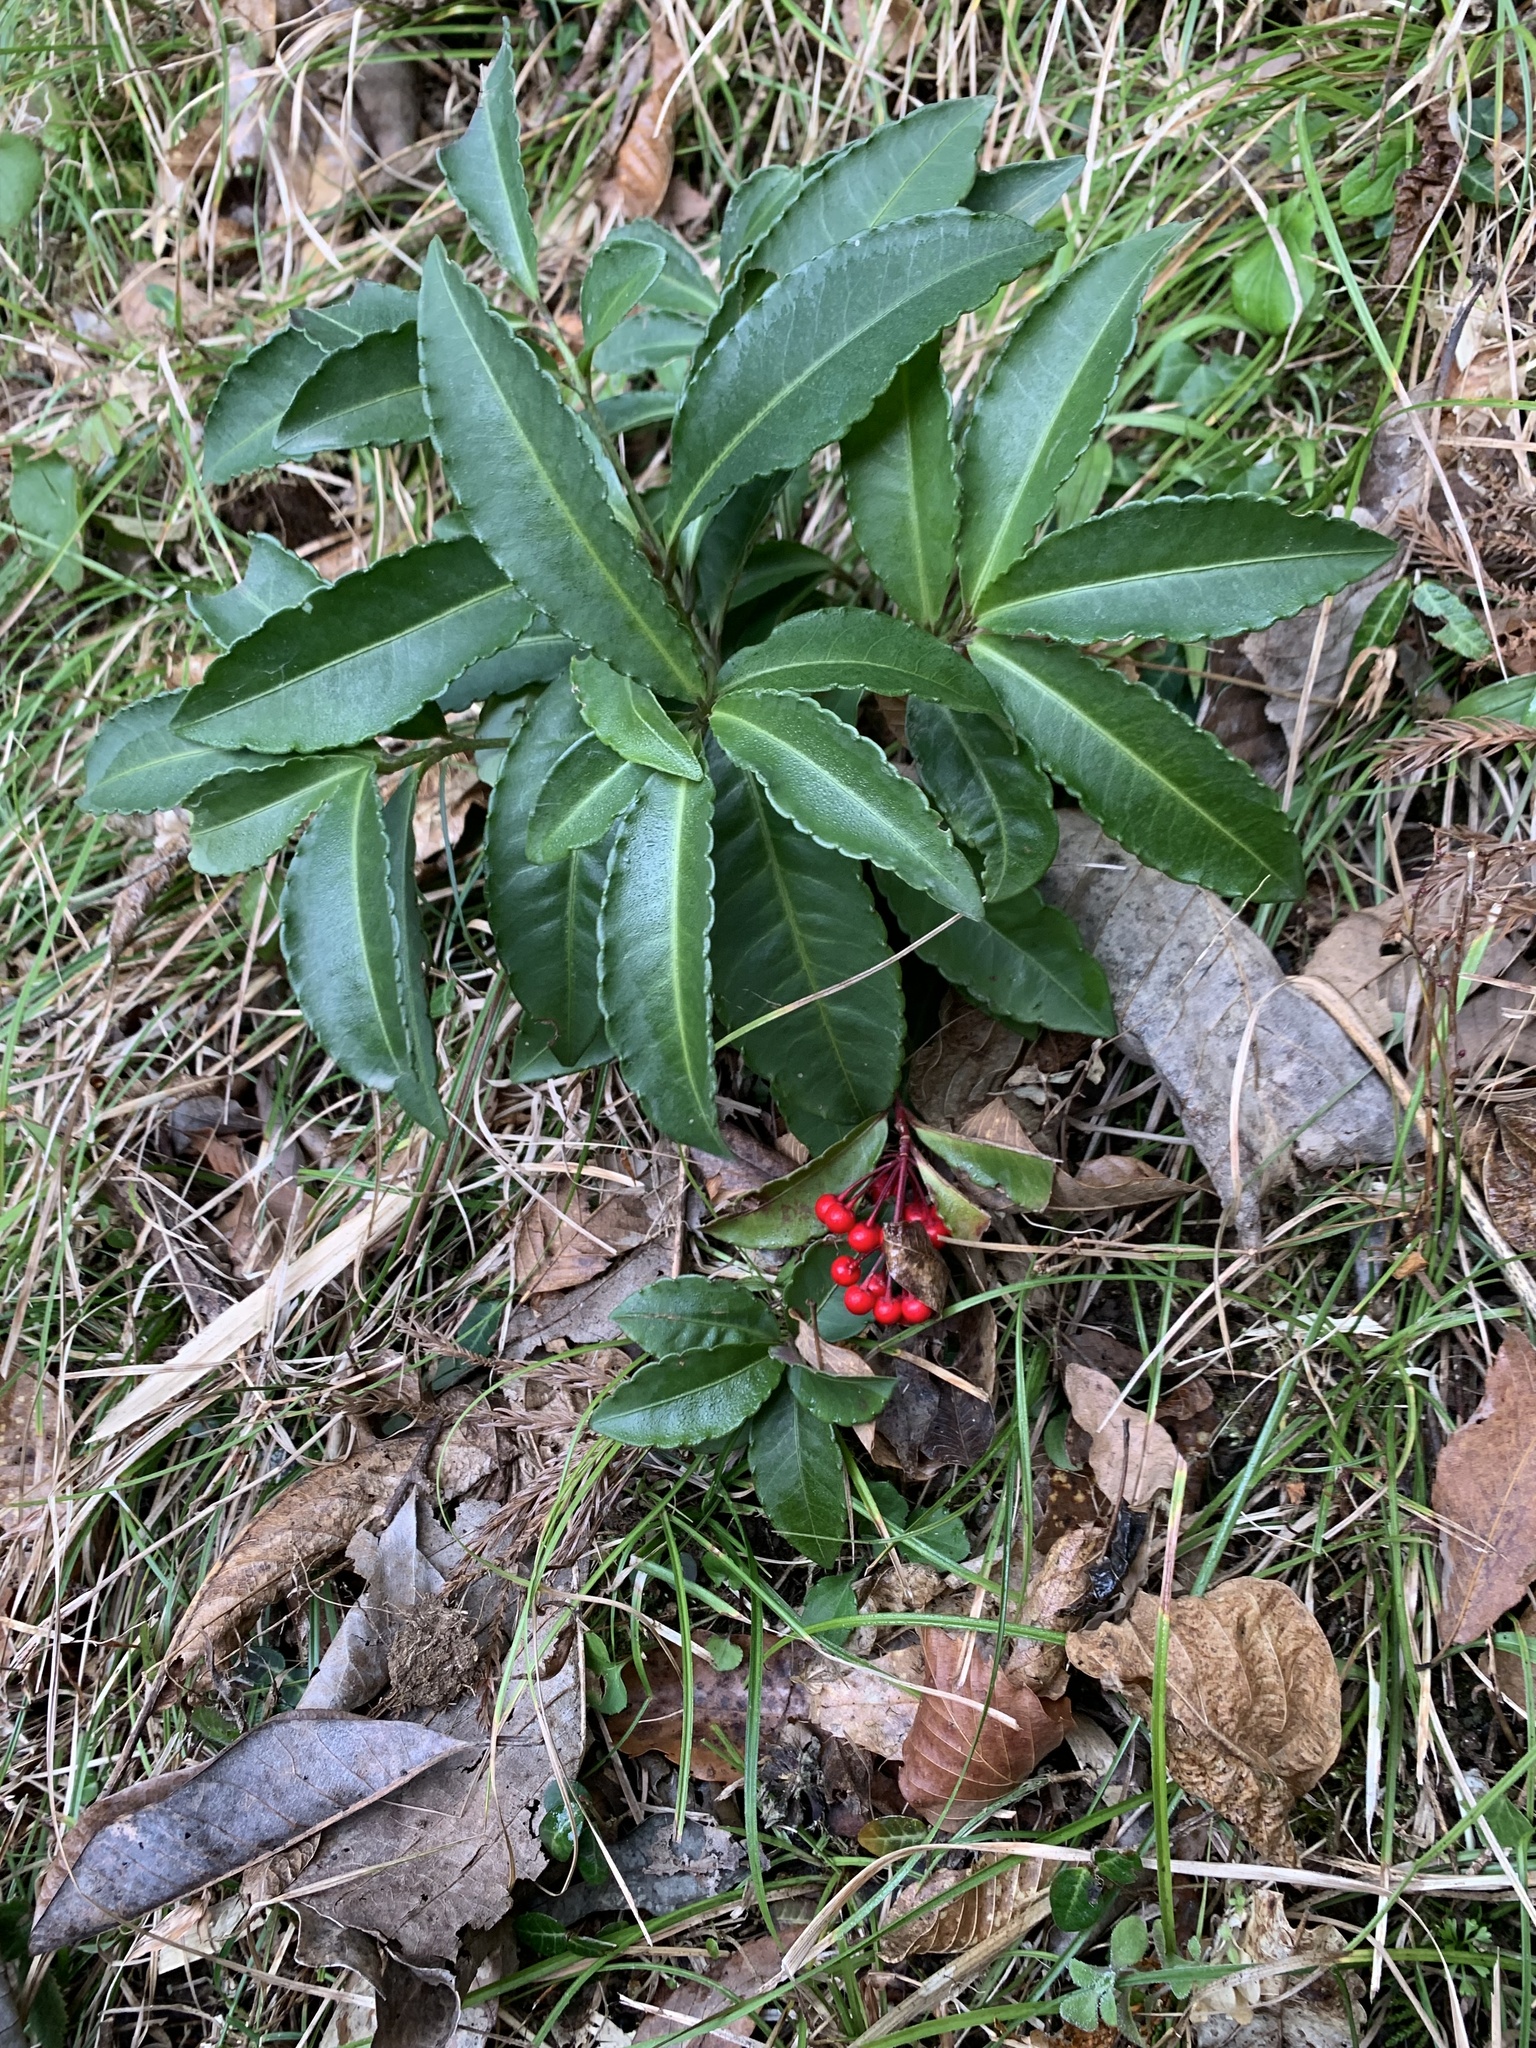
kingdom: Plantae
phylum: Tracheophyta
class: Magnoliopsida
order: Ericales
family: Primulaceae
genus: Ardisia
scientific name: Ardisia crenata
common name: Hen's eyes
